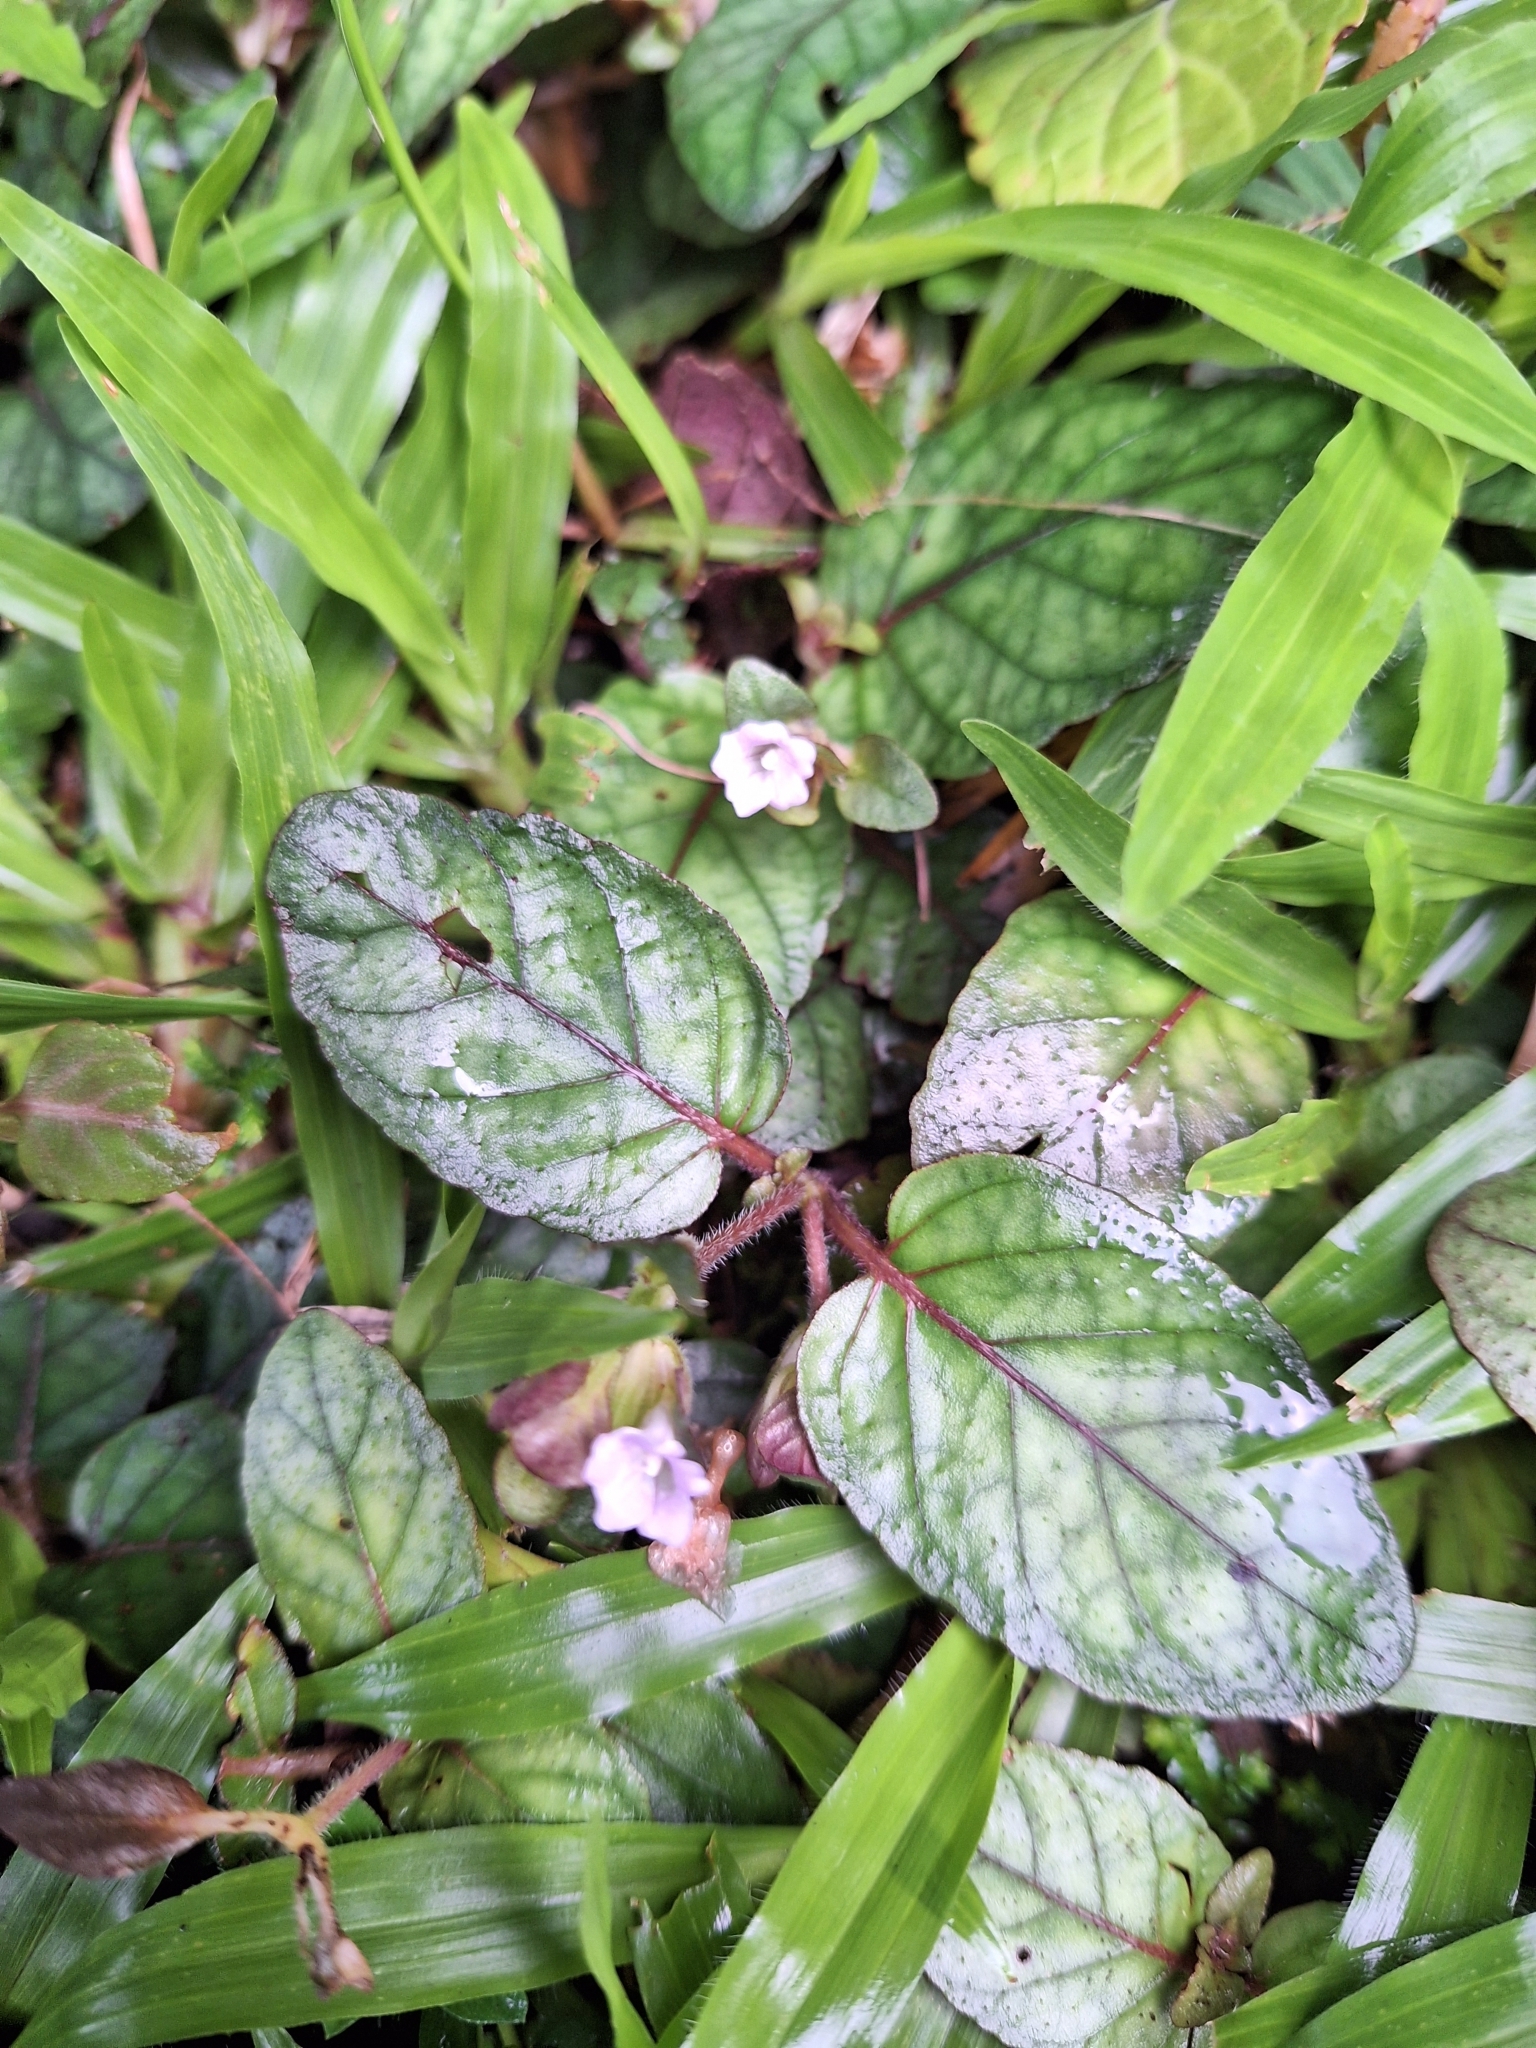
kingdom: Plantae
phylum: Tracheophyta
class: Magnoliopsida
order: Lamiales
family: Acanthaceae
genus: Strobilanthes
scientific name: Strobilanthes reptans
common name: Acanthaceae
